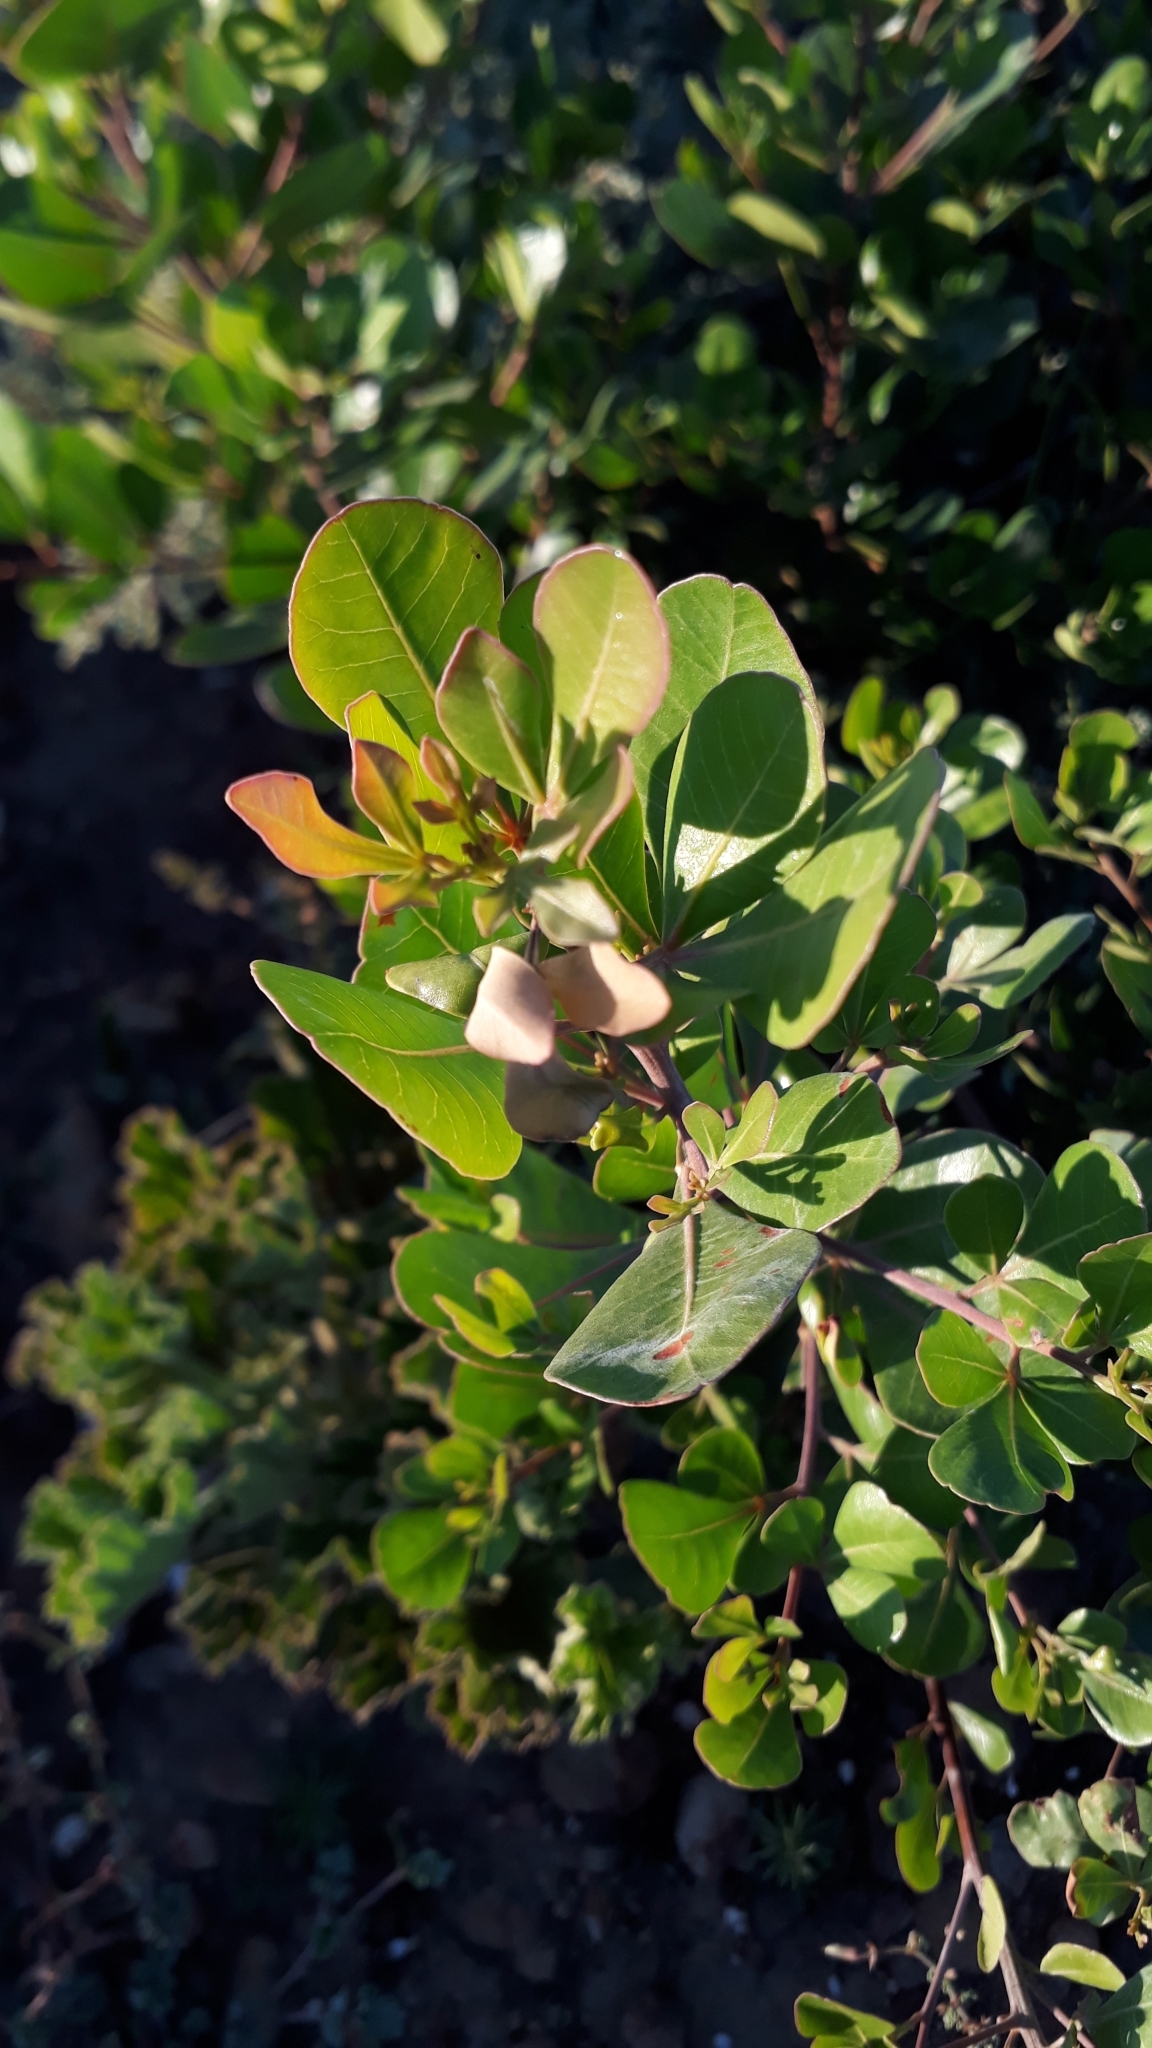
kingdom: Plantae
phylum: Tracheophyta
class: Magnoliopsida
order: Sapindales
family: Anacardiaceae
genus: Searsia
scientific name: Searsia lucida
